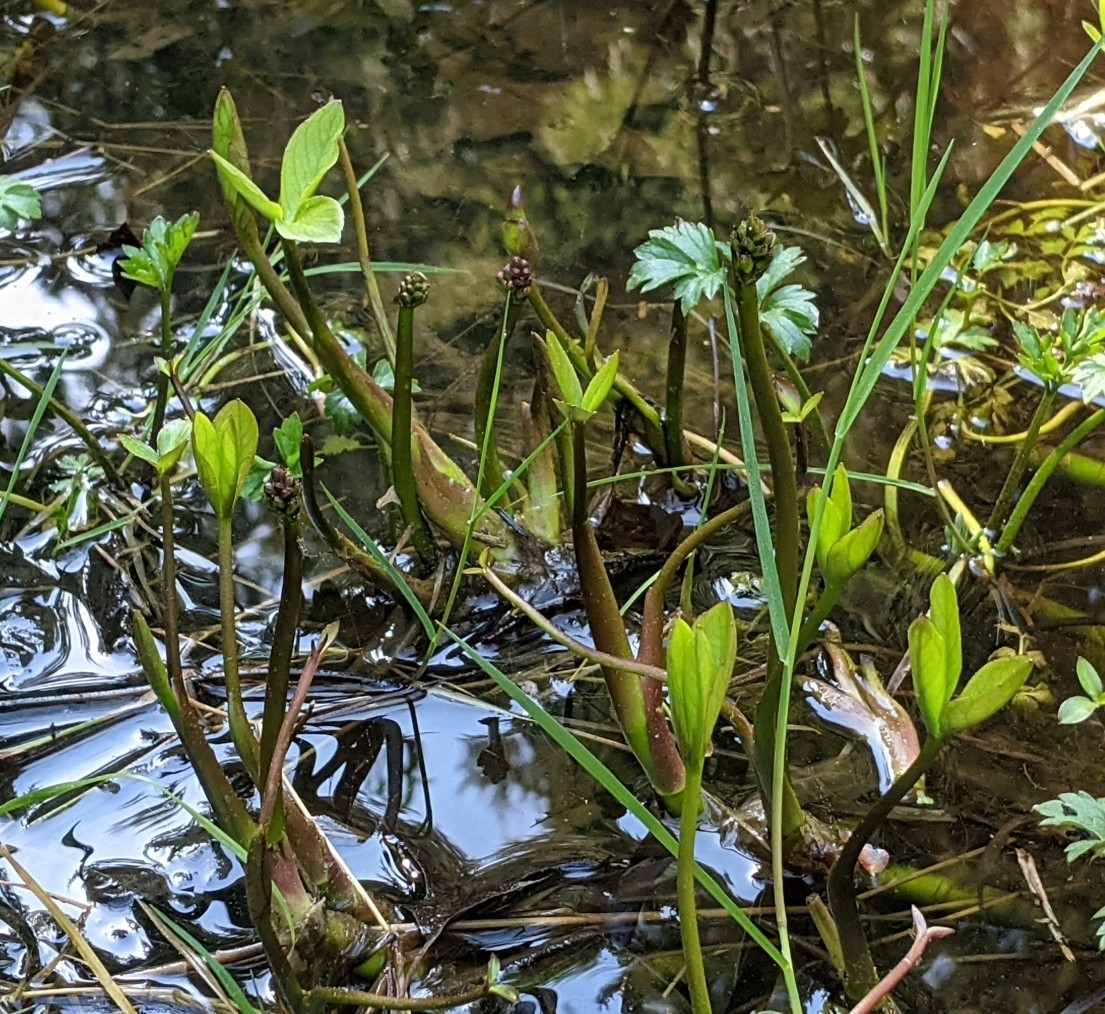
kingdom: Plantae
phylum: Tracheophyta
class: Magnoliopsida
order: Asterales
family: Menyanthaceae
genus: Menyanthes
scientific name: Menyanthes trifoliata
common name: Bogbean
